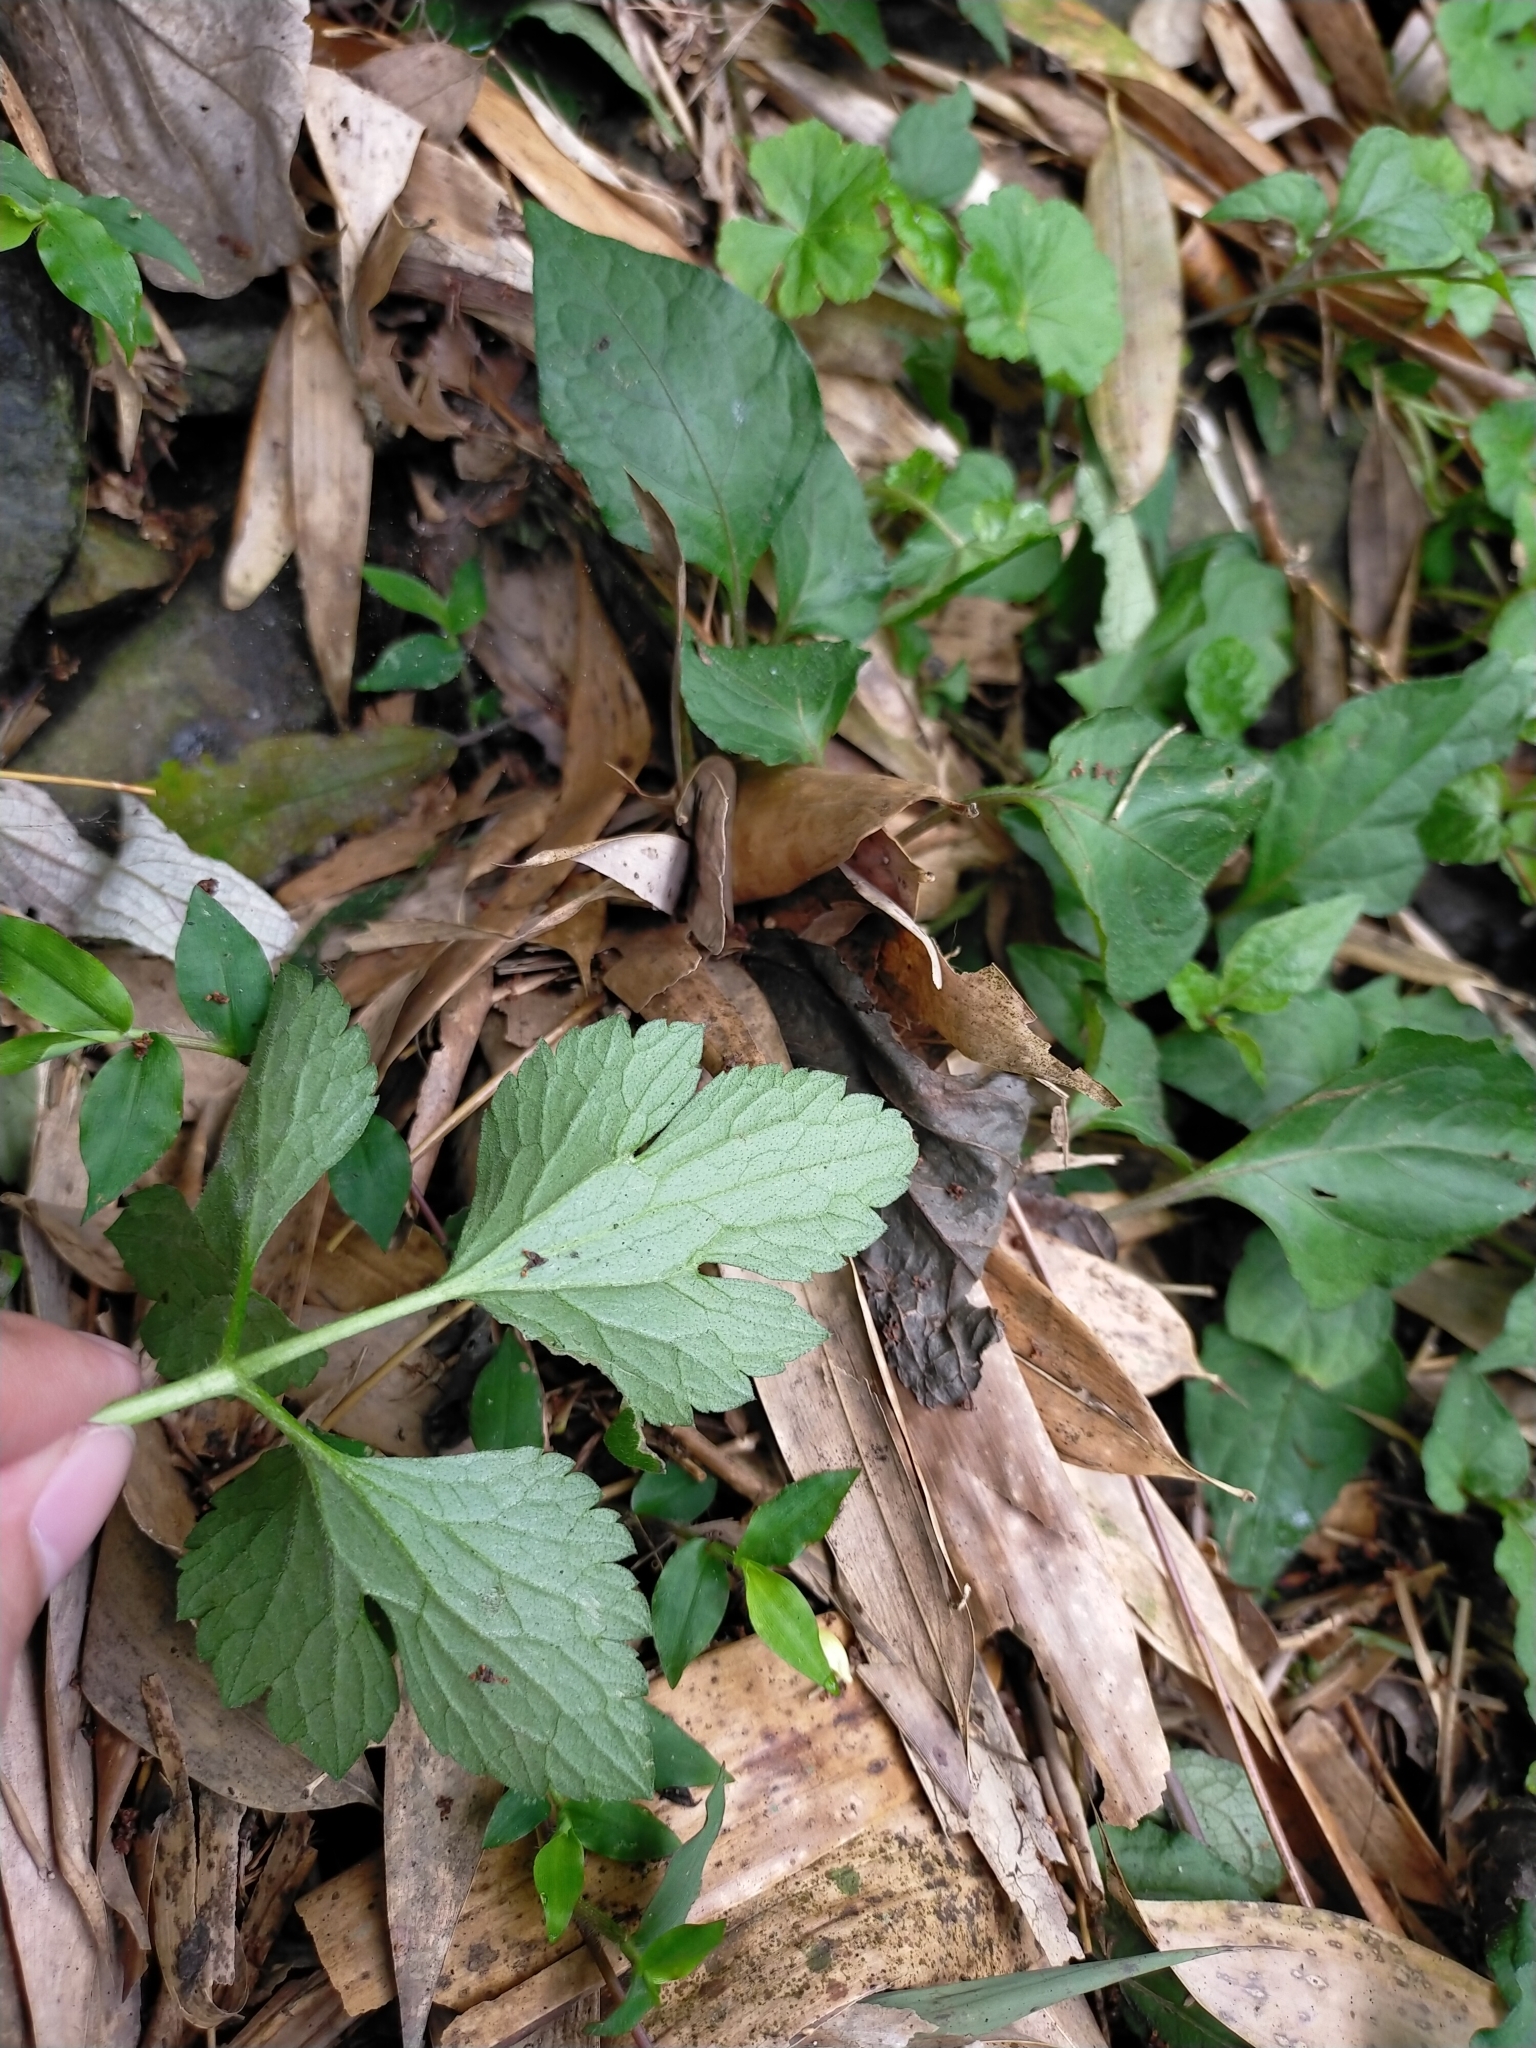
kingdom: Plantae
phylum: Tracheophyta
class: Magnoliopsida
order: Ranunculales
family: Ranunculaceae
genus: Ranunculus
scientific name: Ranunculus cantoniensis
